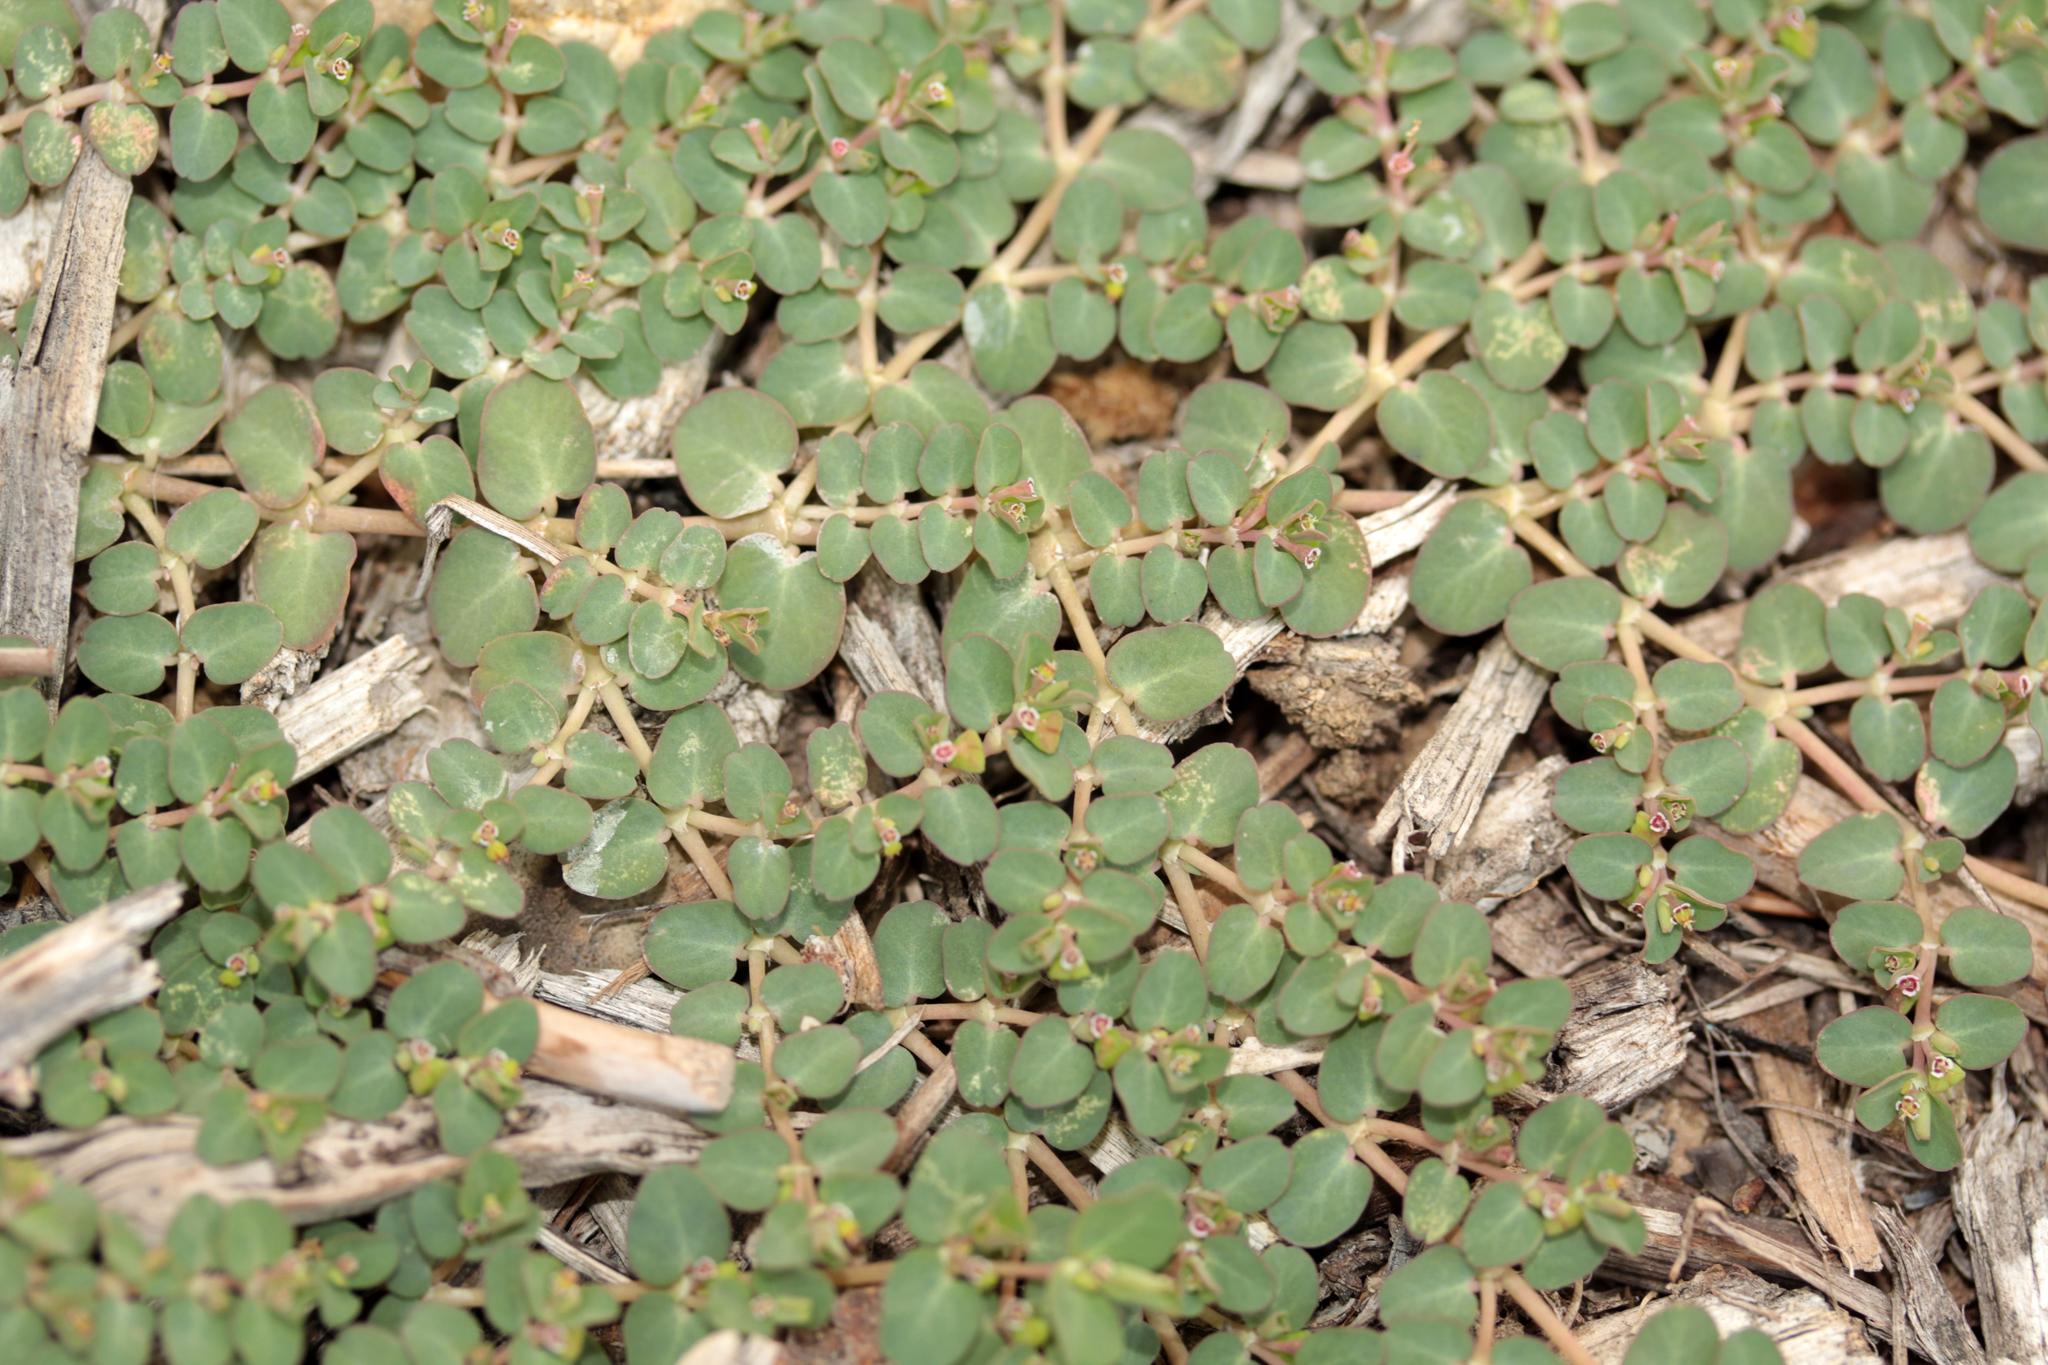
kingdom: Plantae
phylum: Tracheophyta
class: Magnoliopsida
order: Malpighiales
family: Euphorbiaceae
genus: Euphorbia
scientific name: Euphorbia serpens
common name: Matted sandmat
